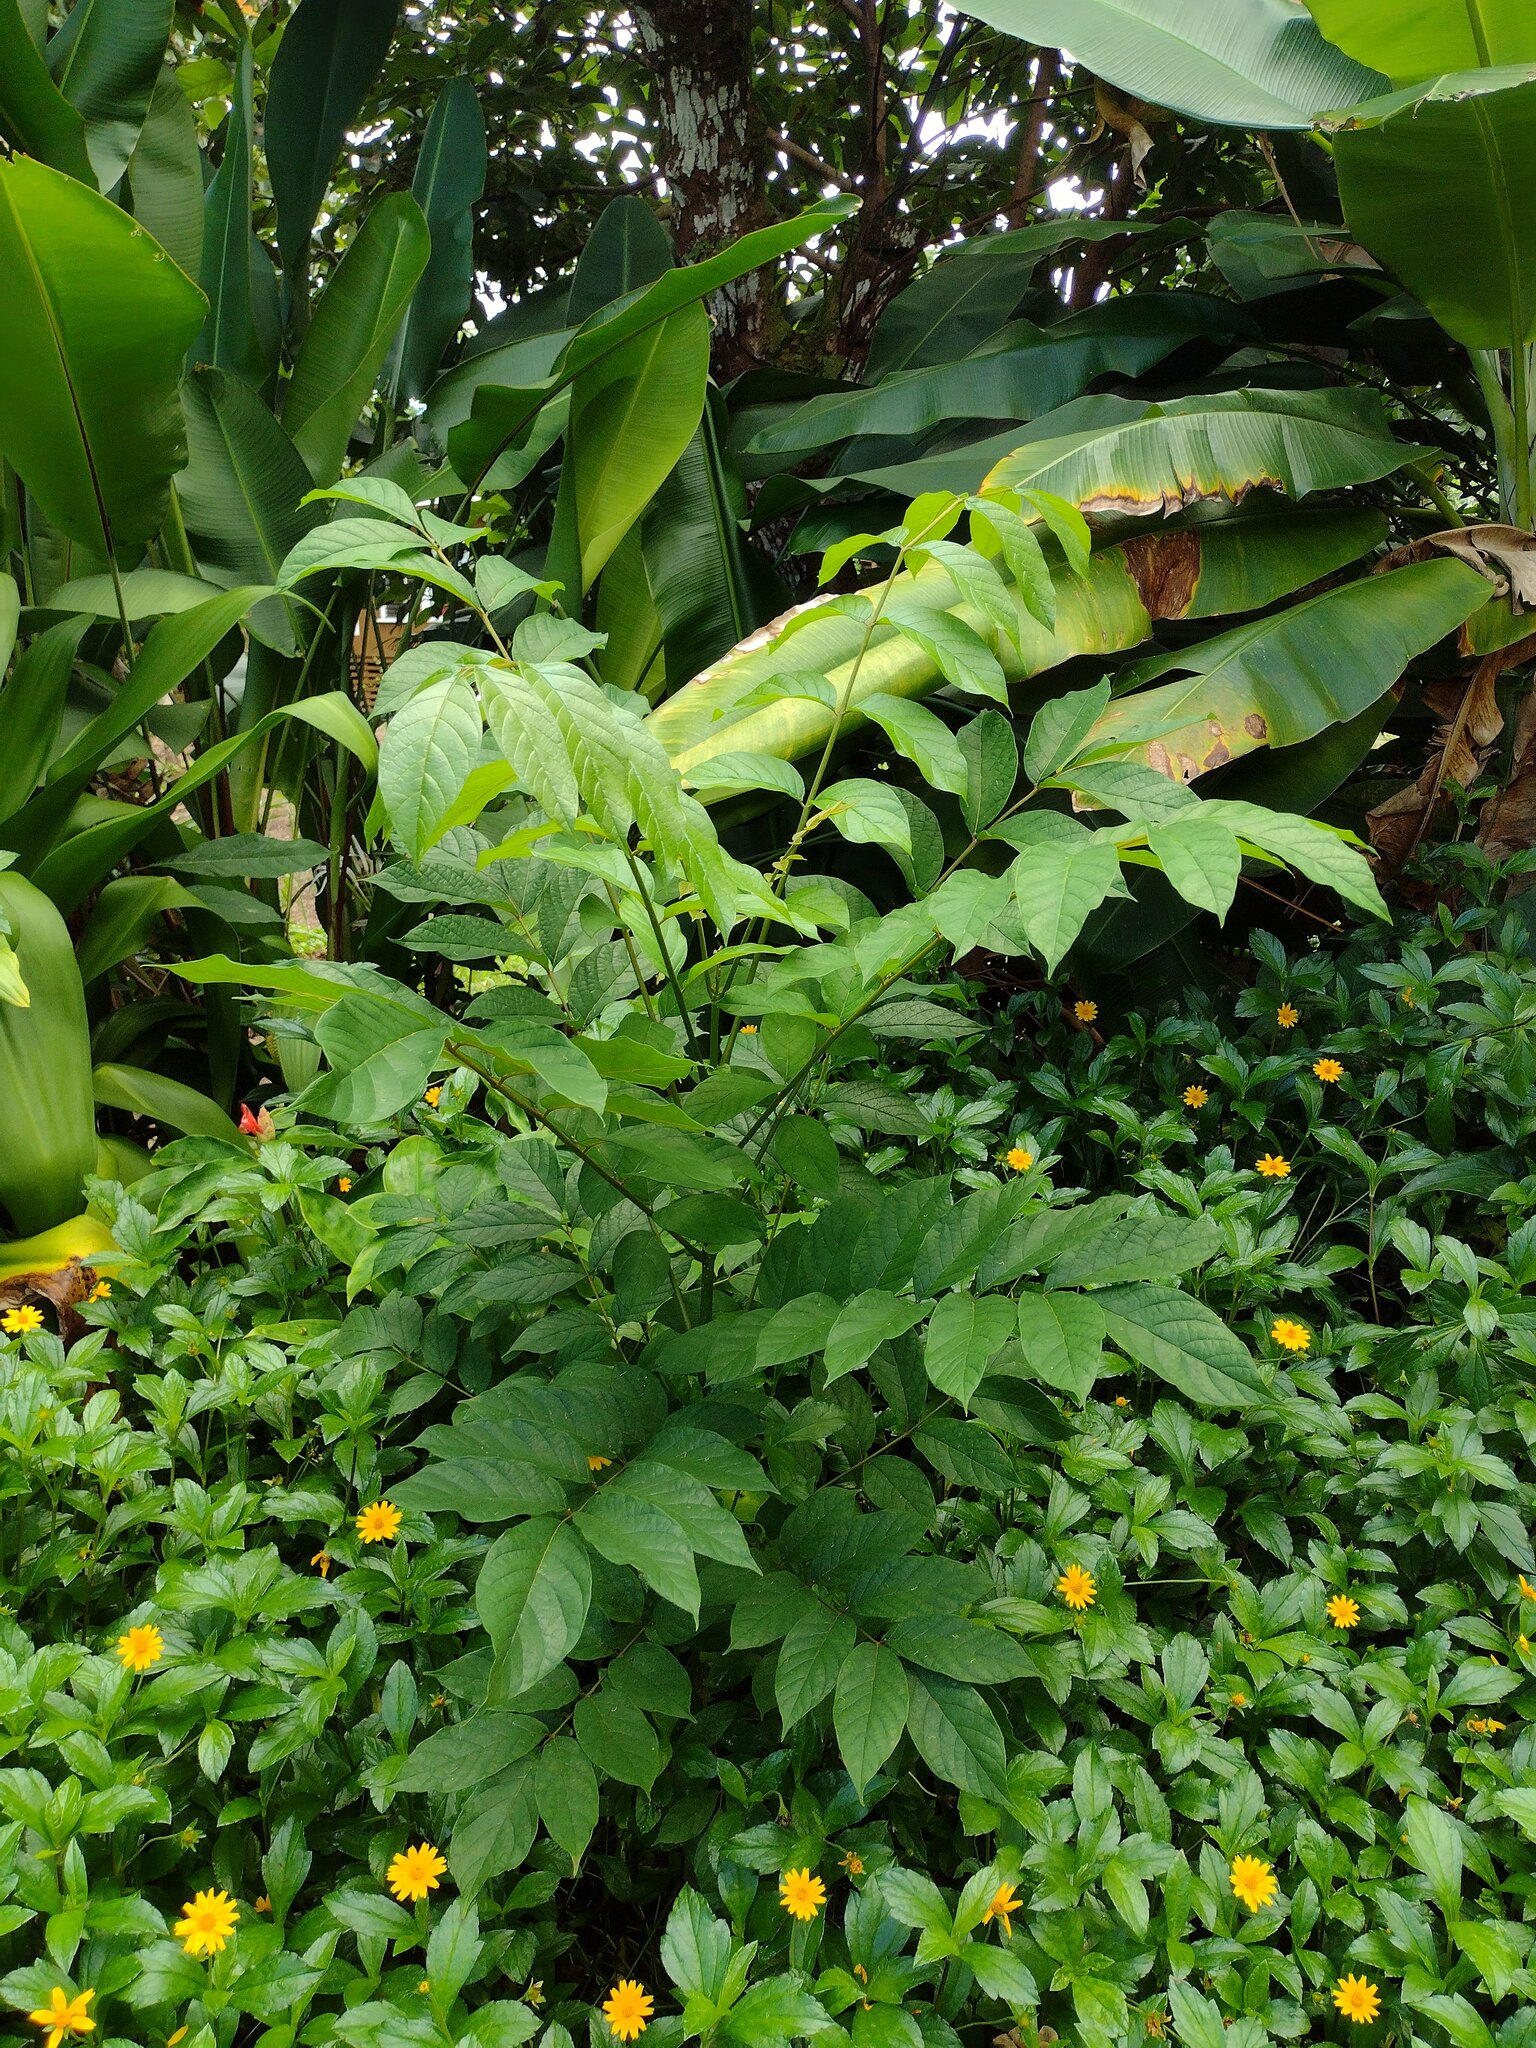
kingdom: Plantae
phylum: Tracheophyta
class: Magnoliopsida
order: Lamiales
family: Bignoniaceae
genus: Spathodea
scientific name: Spathodea campanulata
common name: African tuliptree
